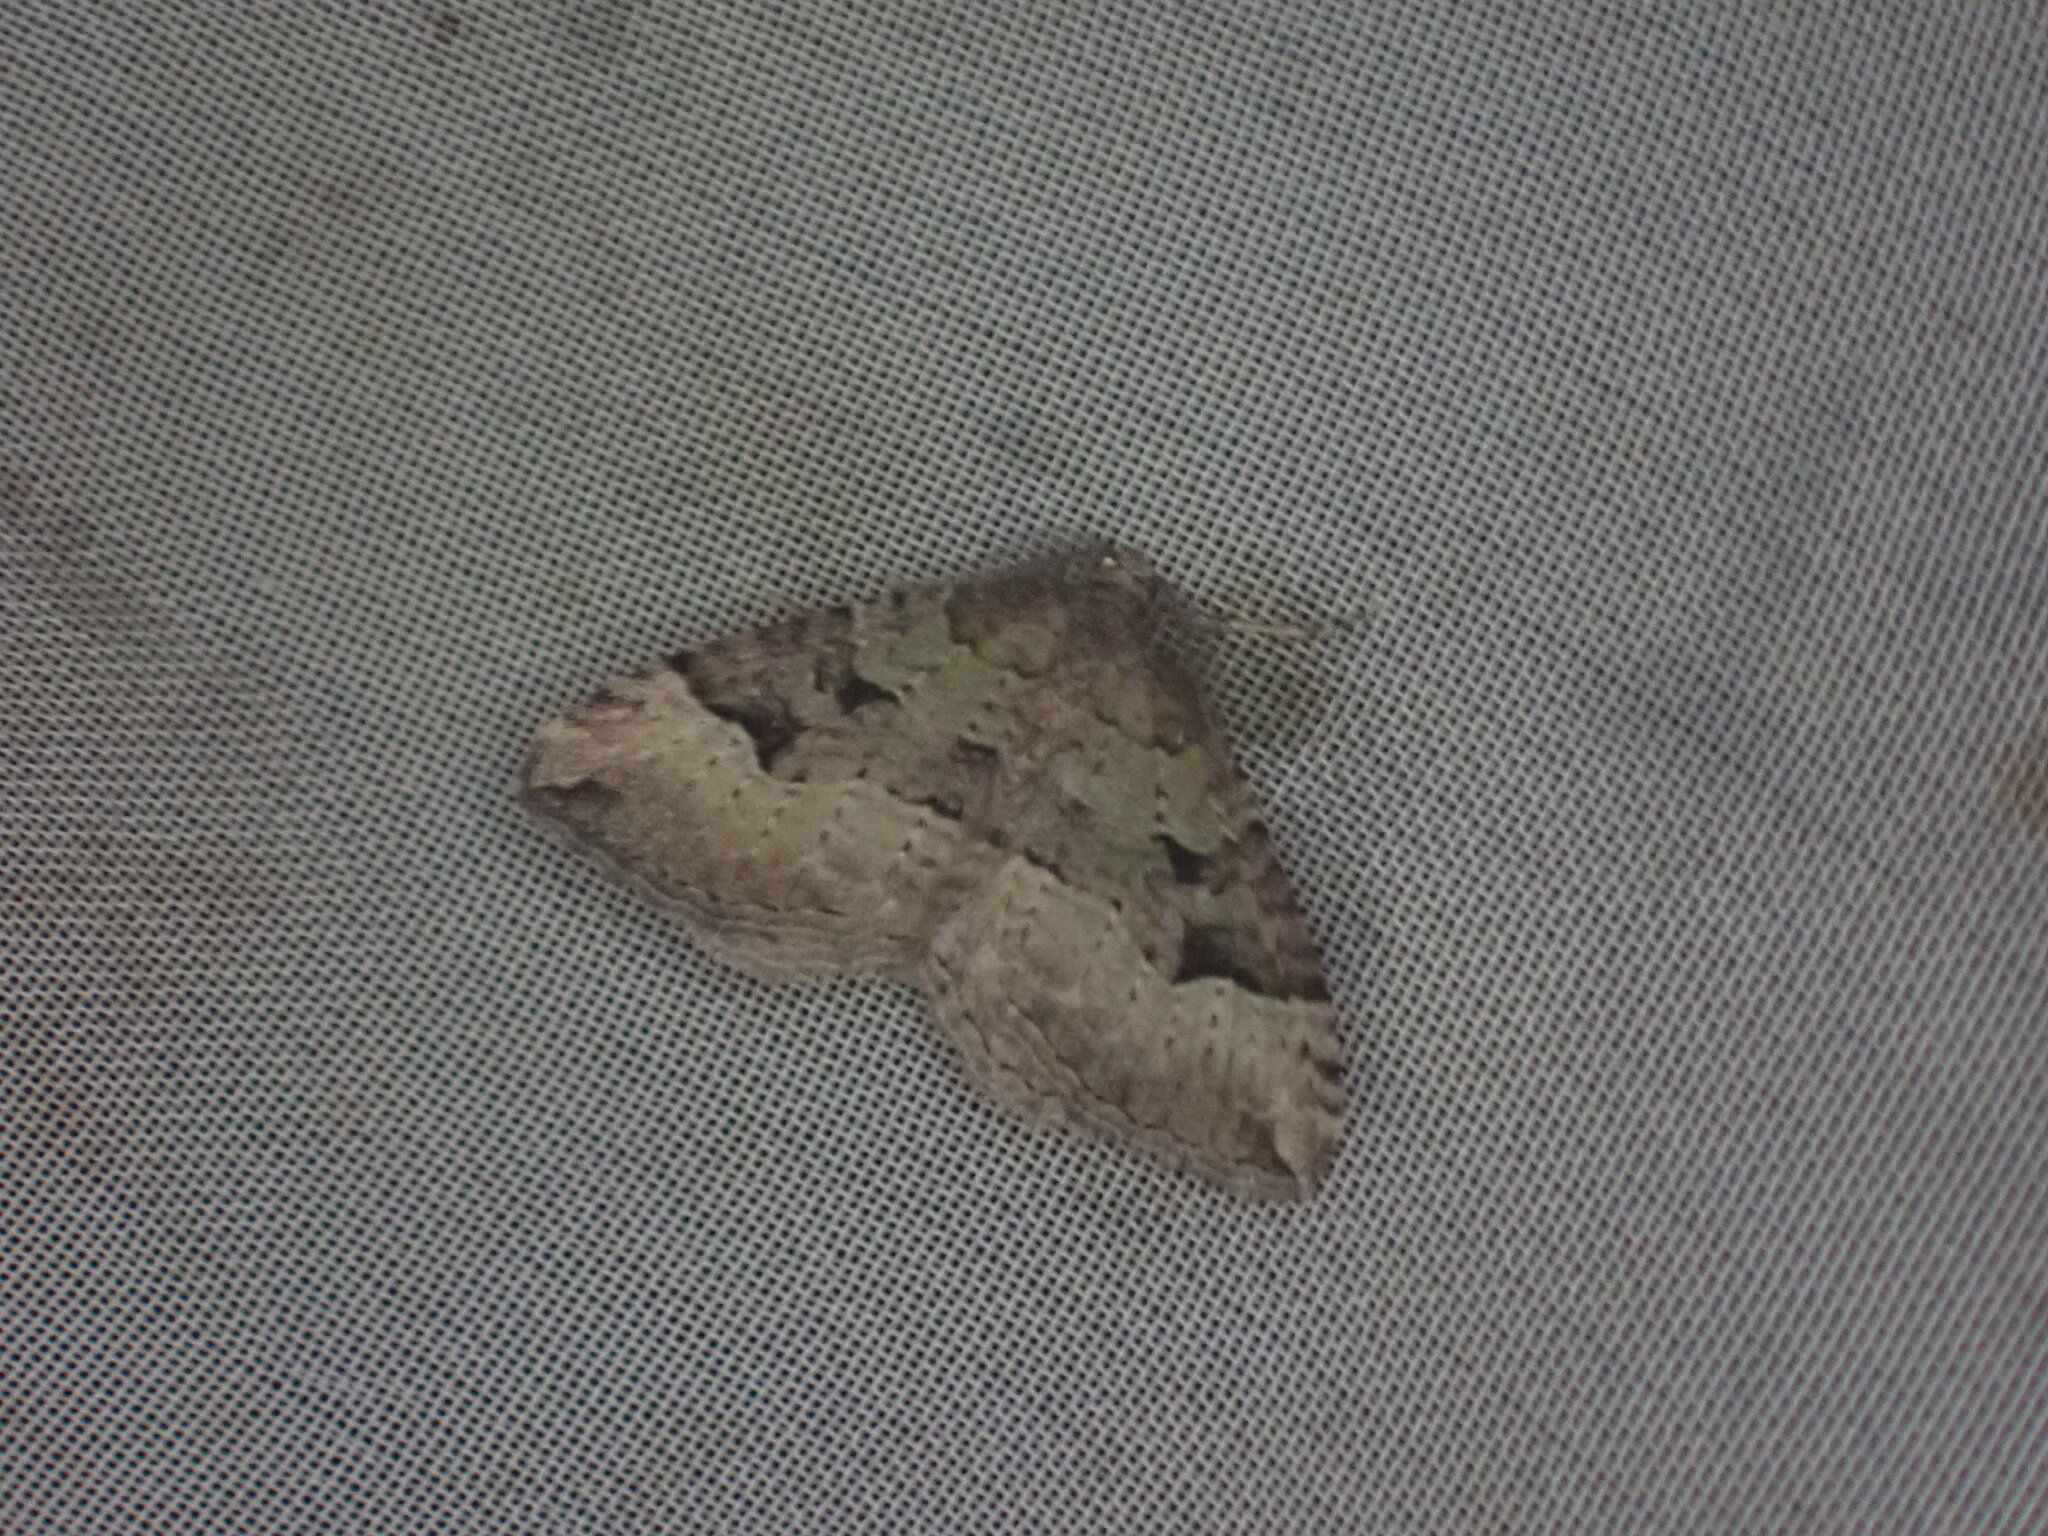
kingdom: Animalia
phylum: Arthropoda
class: Insecta
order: Lepidoptera
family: Geometridae
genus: Epyaxa
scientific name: Epyaxa rosearia
